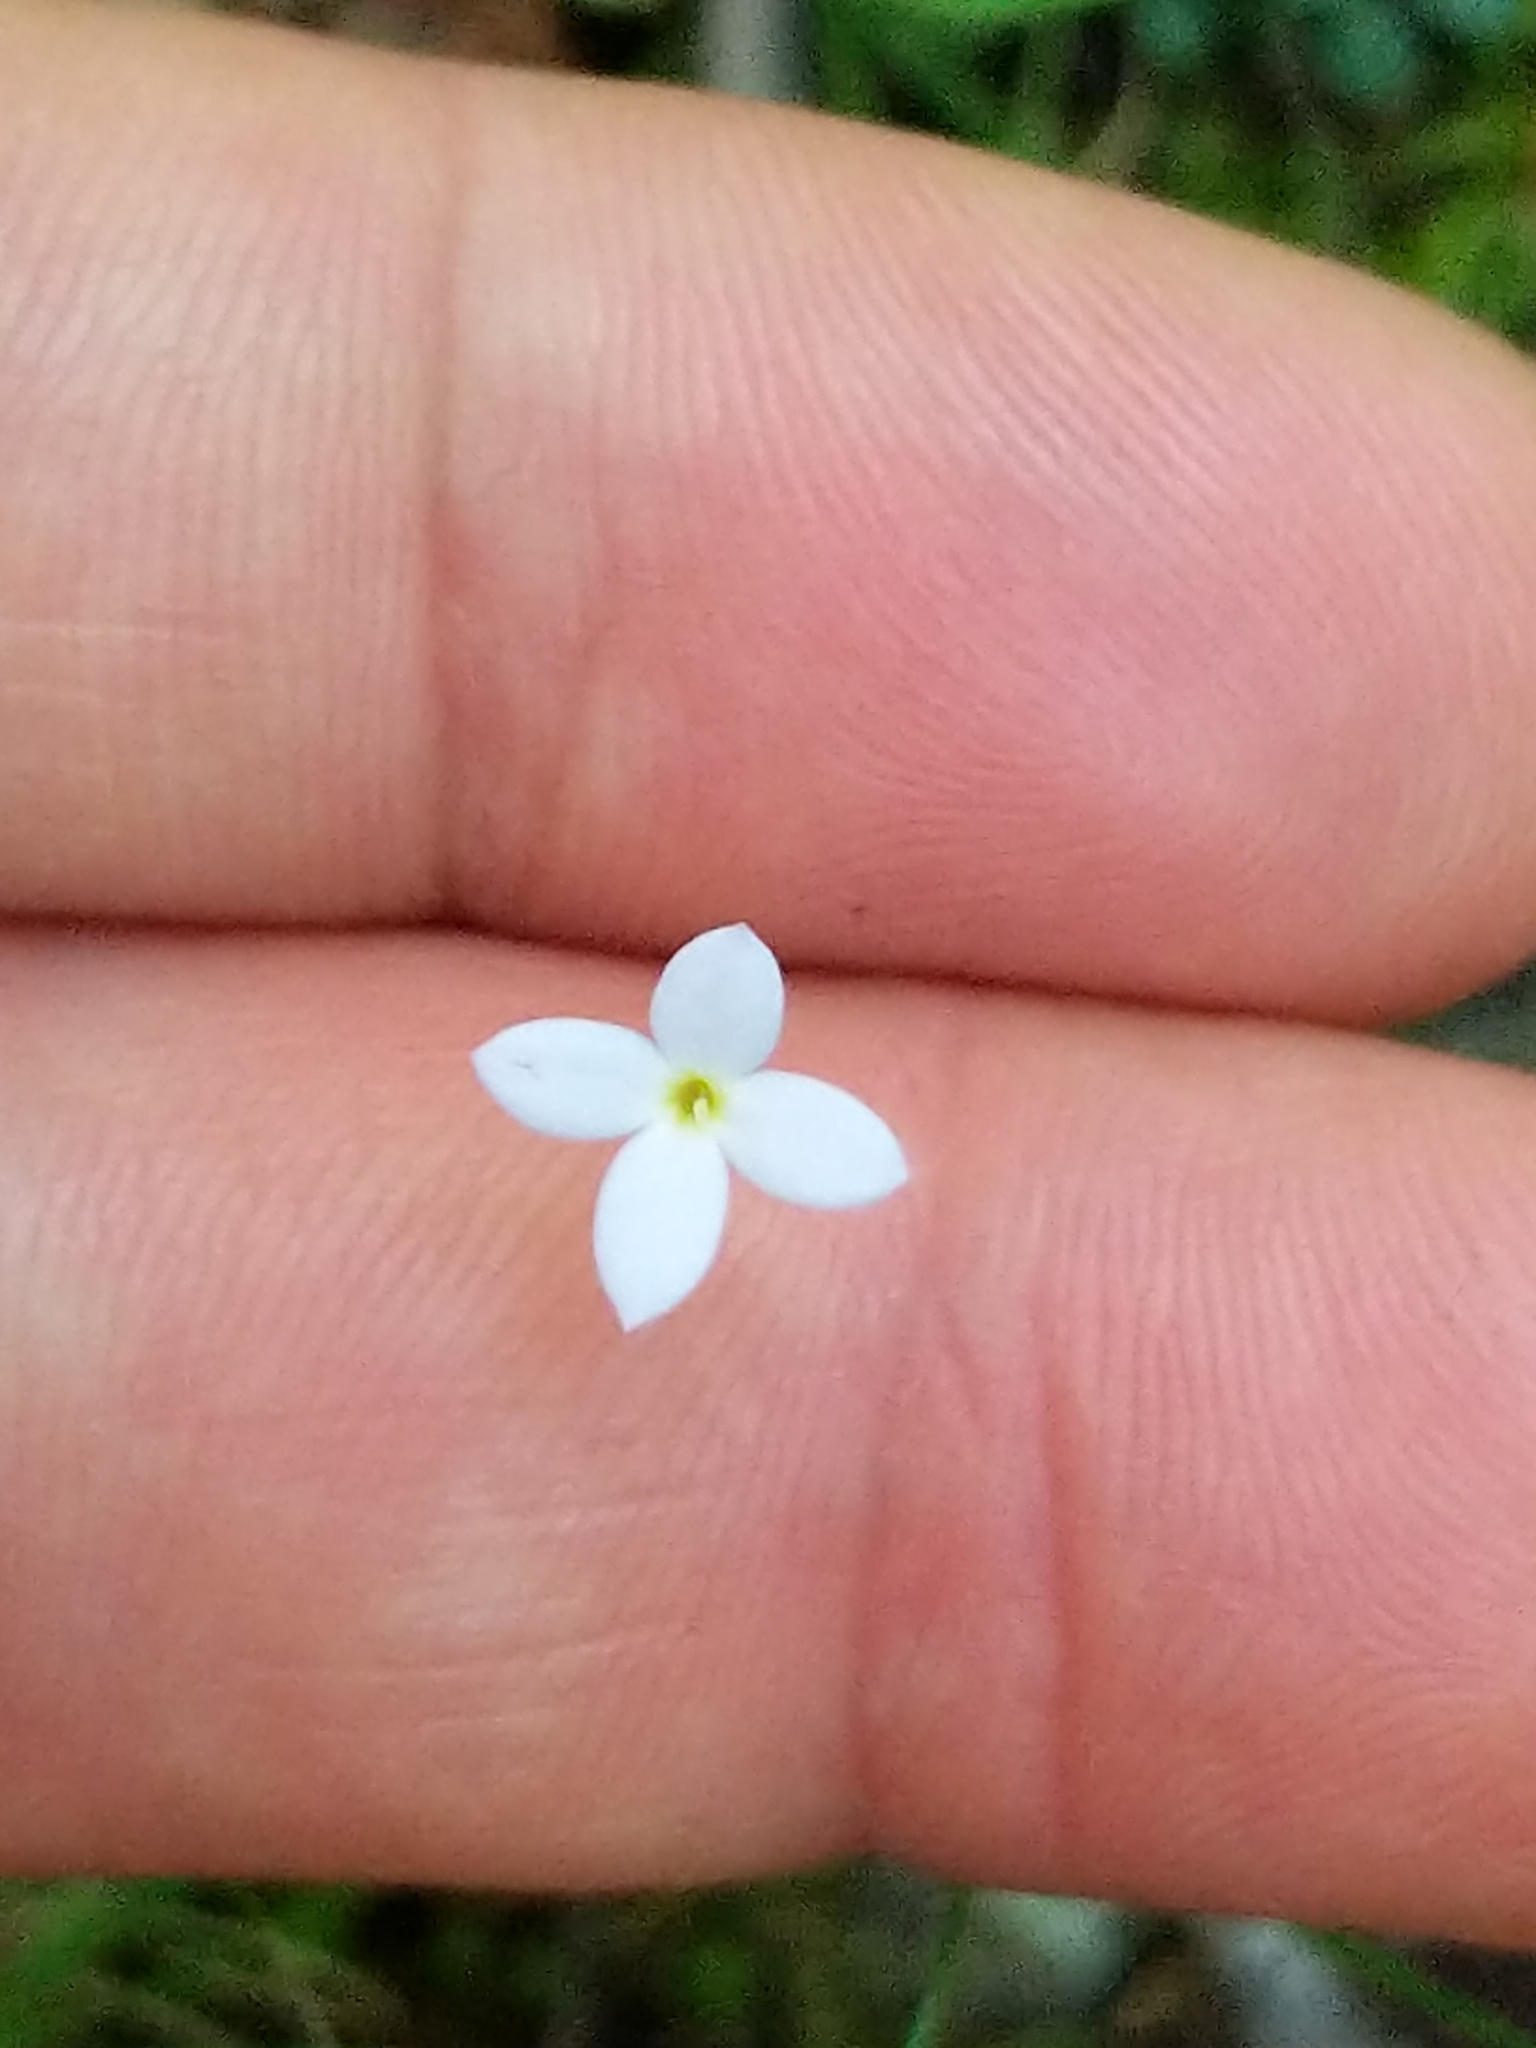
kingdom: Plantae
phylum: Tracheophyta
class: Magnoliopsida
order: Gentianales
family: Rubiaceae
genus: Houstonia
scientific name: Houstonia caerulea
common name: Bluets
